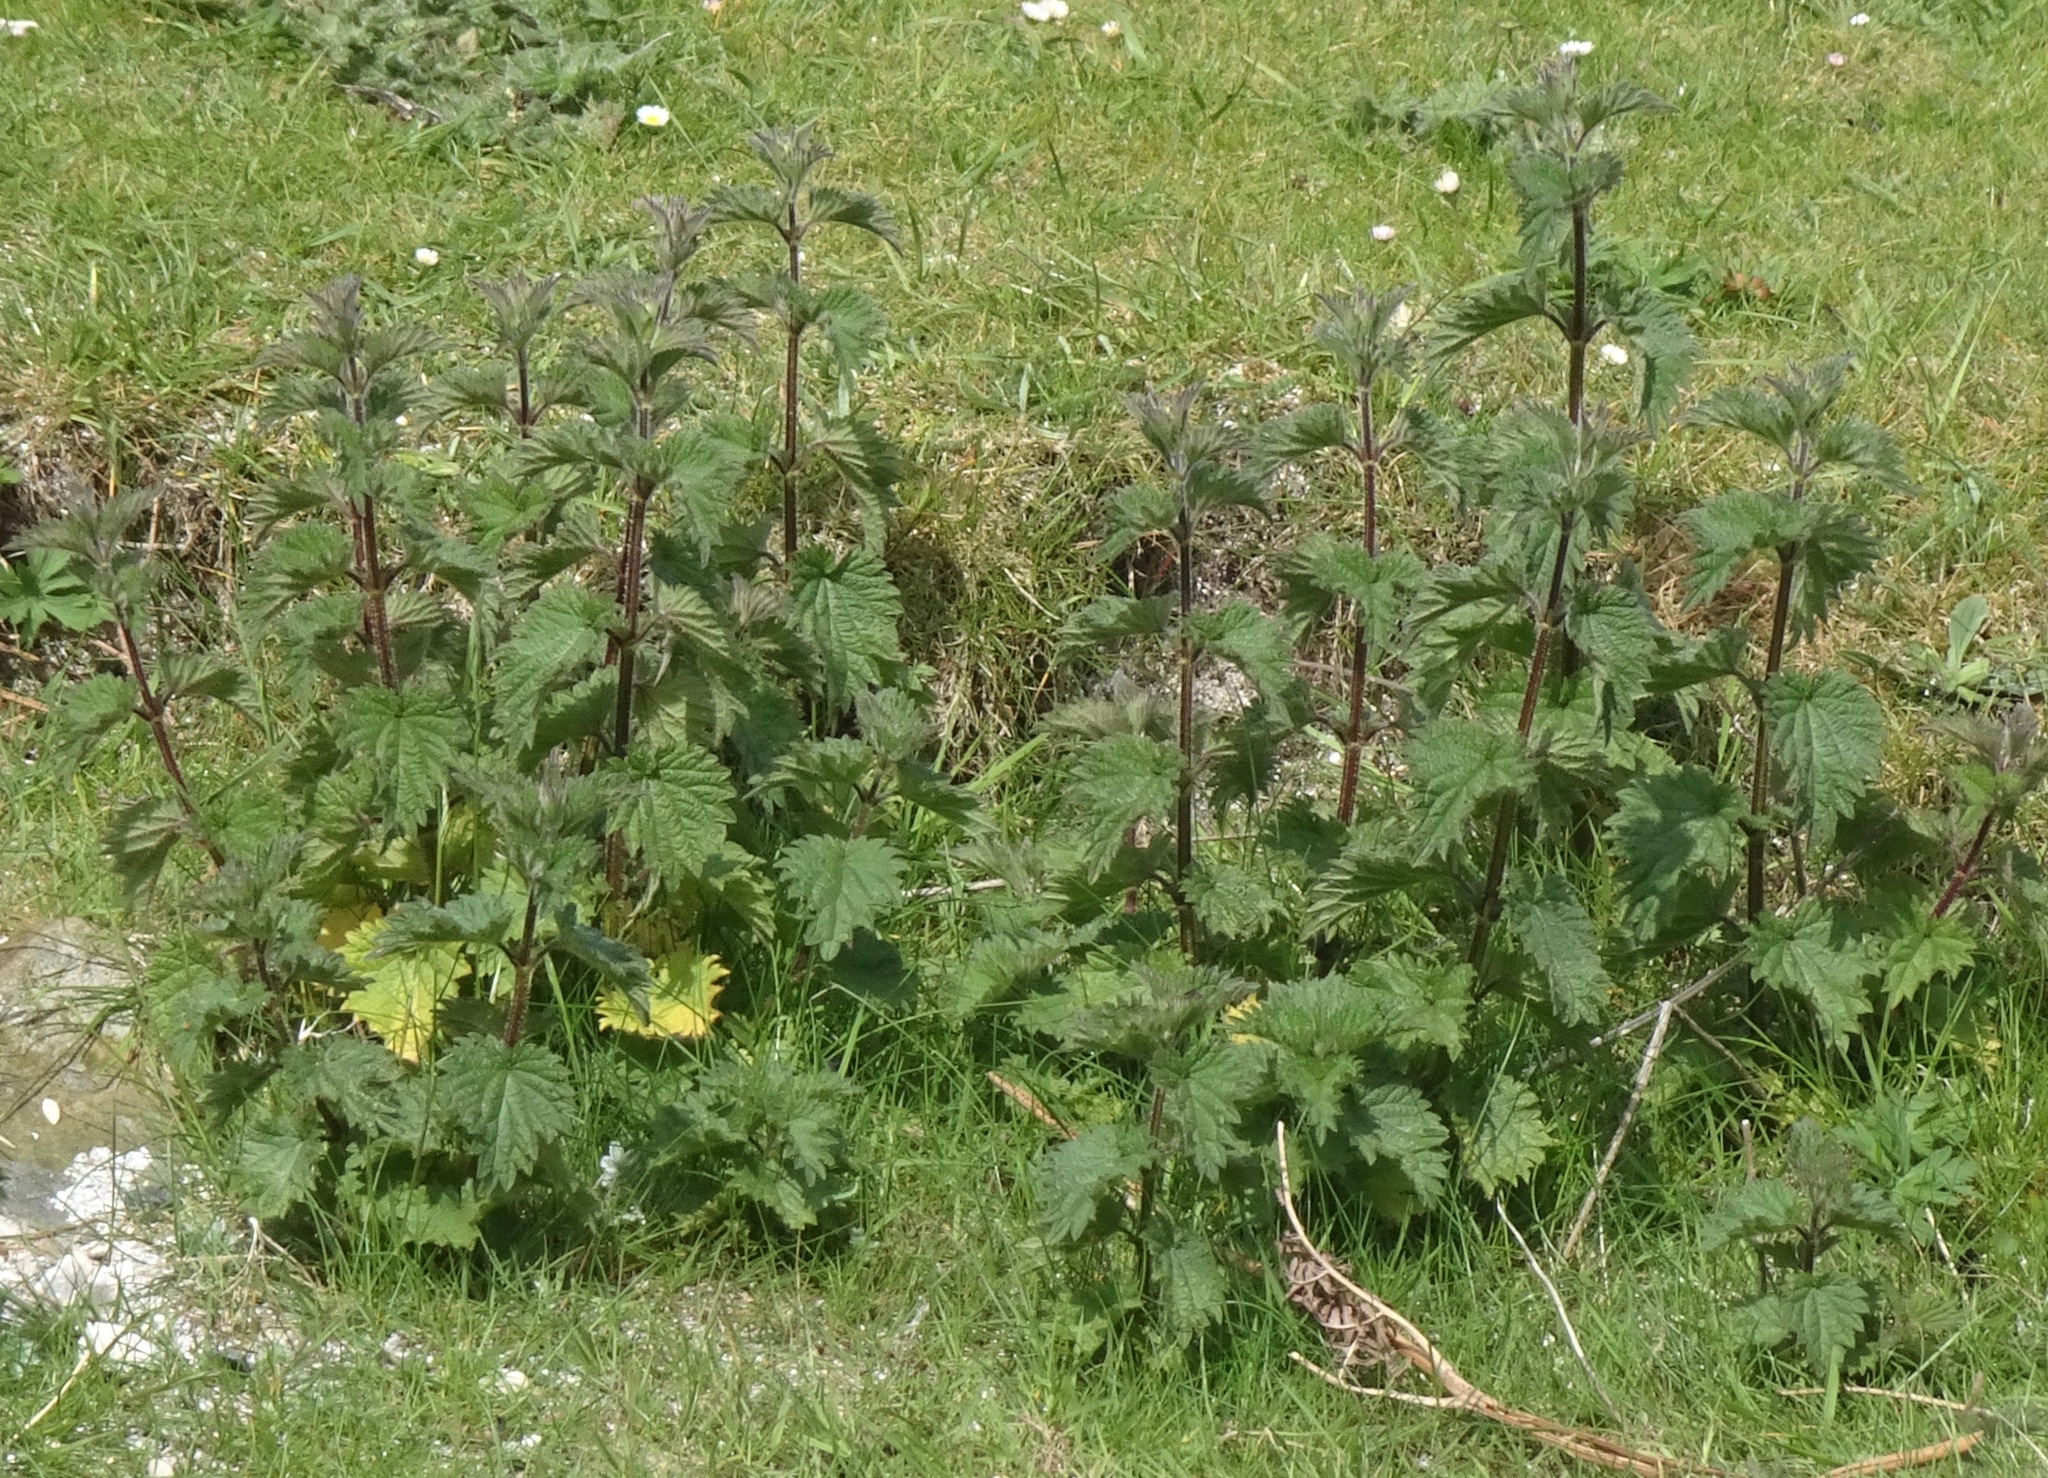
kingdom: Plantae
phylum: Tracheophyta
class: Magnoliopsida
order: Rosales
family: Urticaceae
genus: Urtica
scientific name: Urtica dioica
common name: Common nettle
